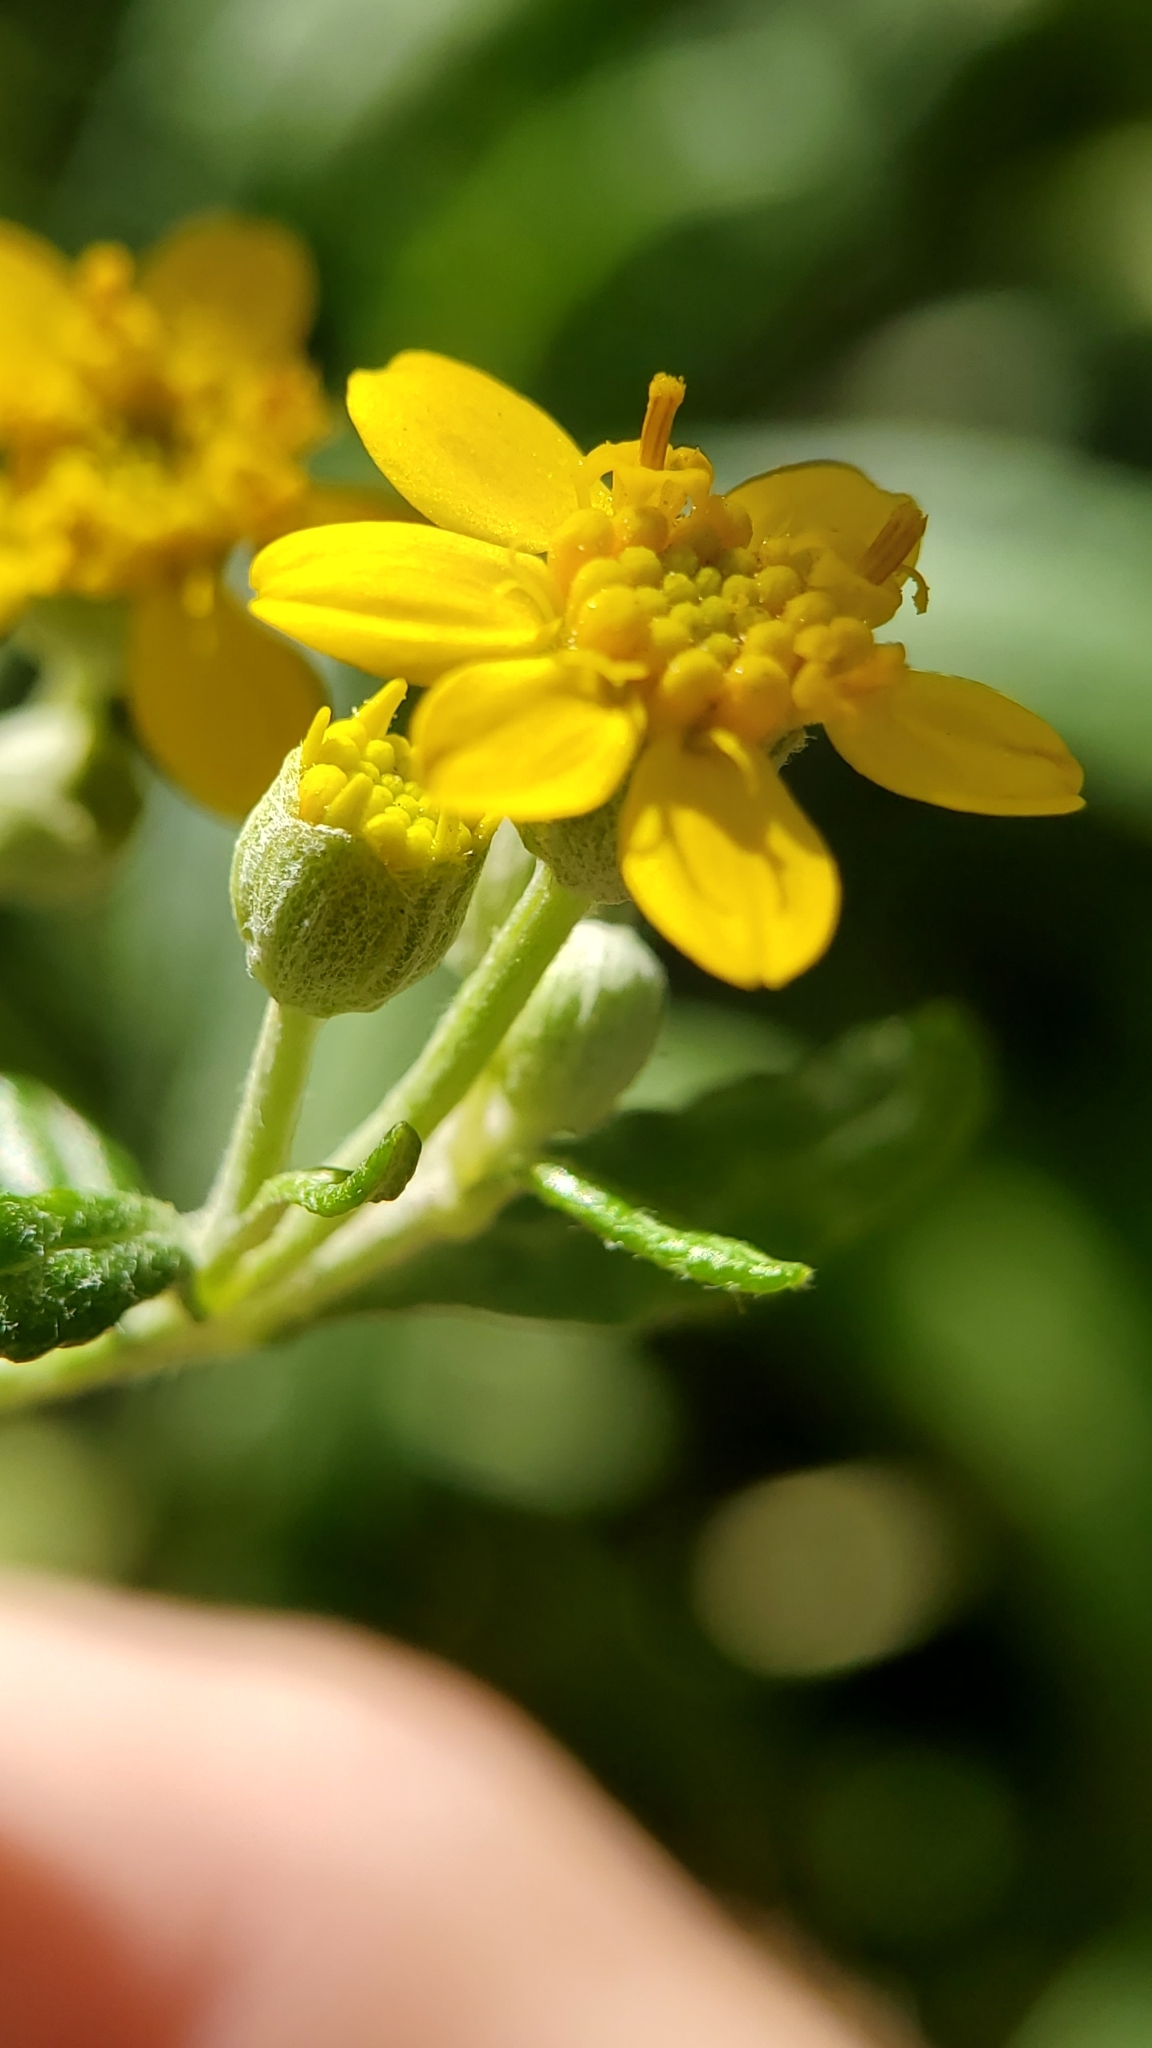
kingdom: Plantae
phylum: Tracheophyta
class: Magnoliopsida
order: Asterales
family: Asteraceae
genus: Eriophyllum
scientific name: Eriophyllum confertiflorum
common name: Golden-yarrow
